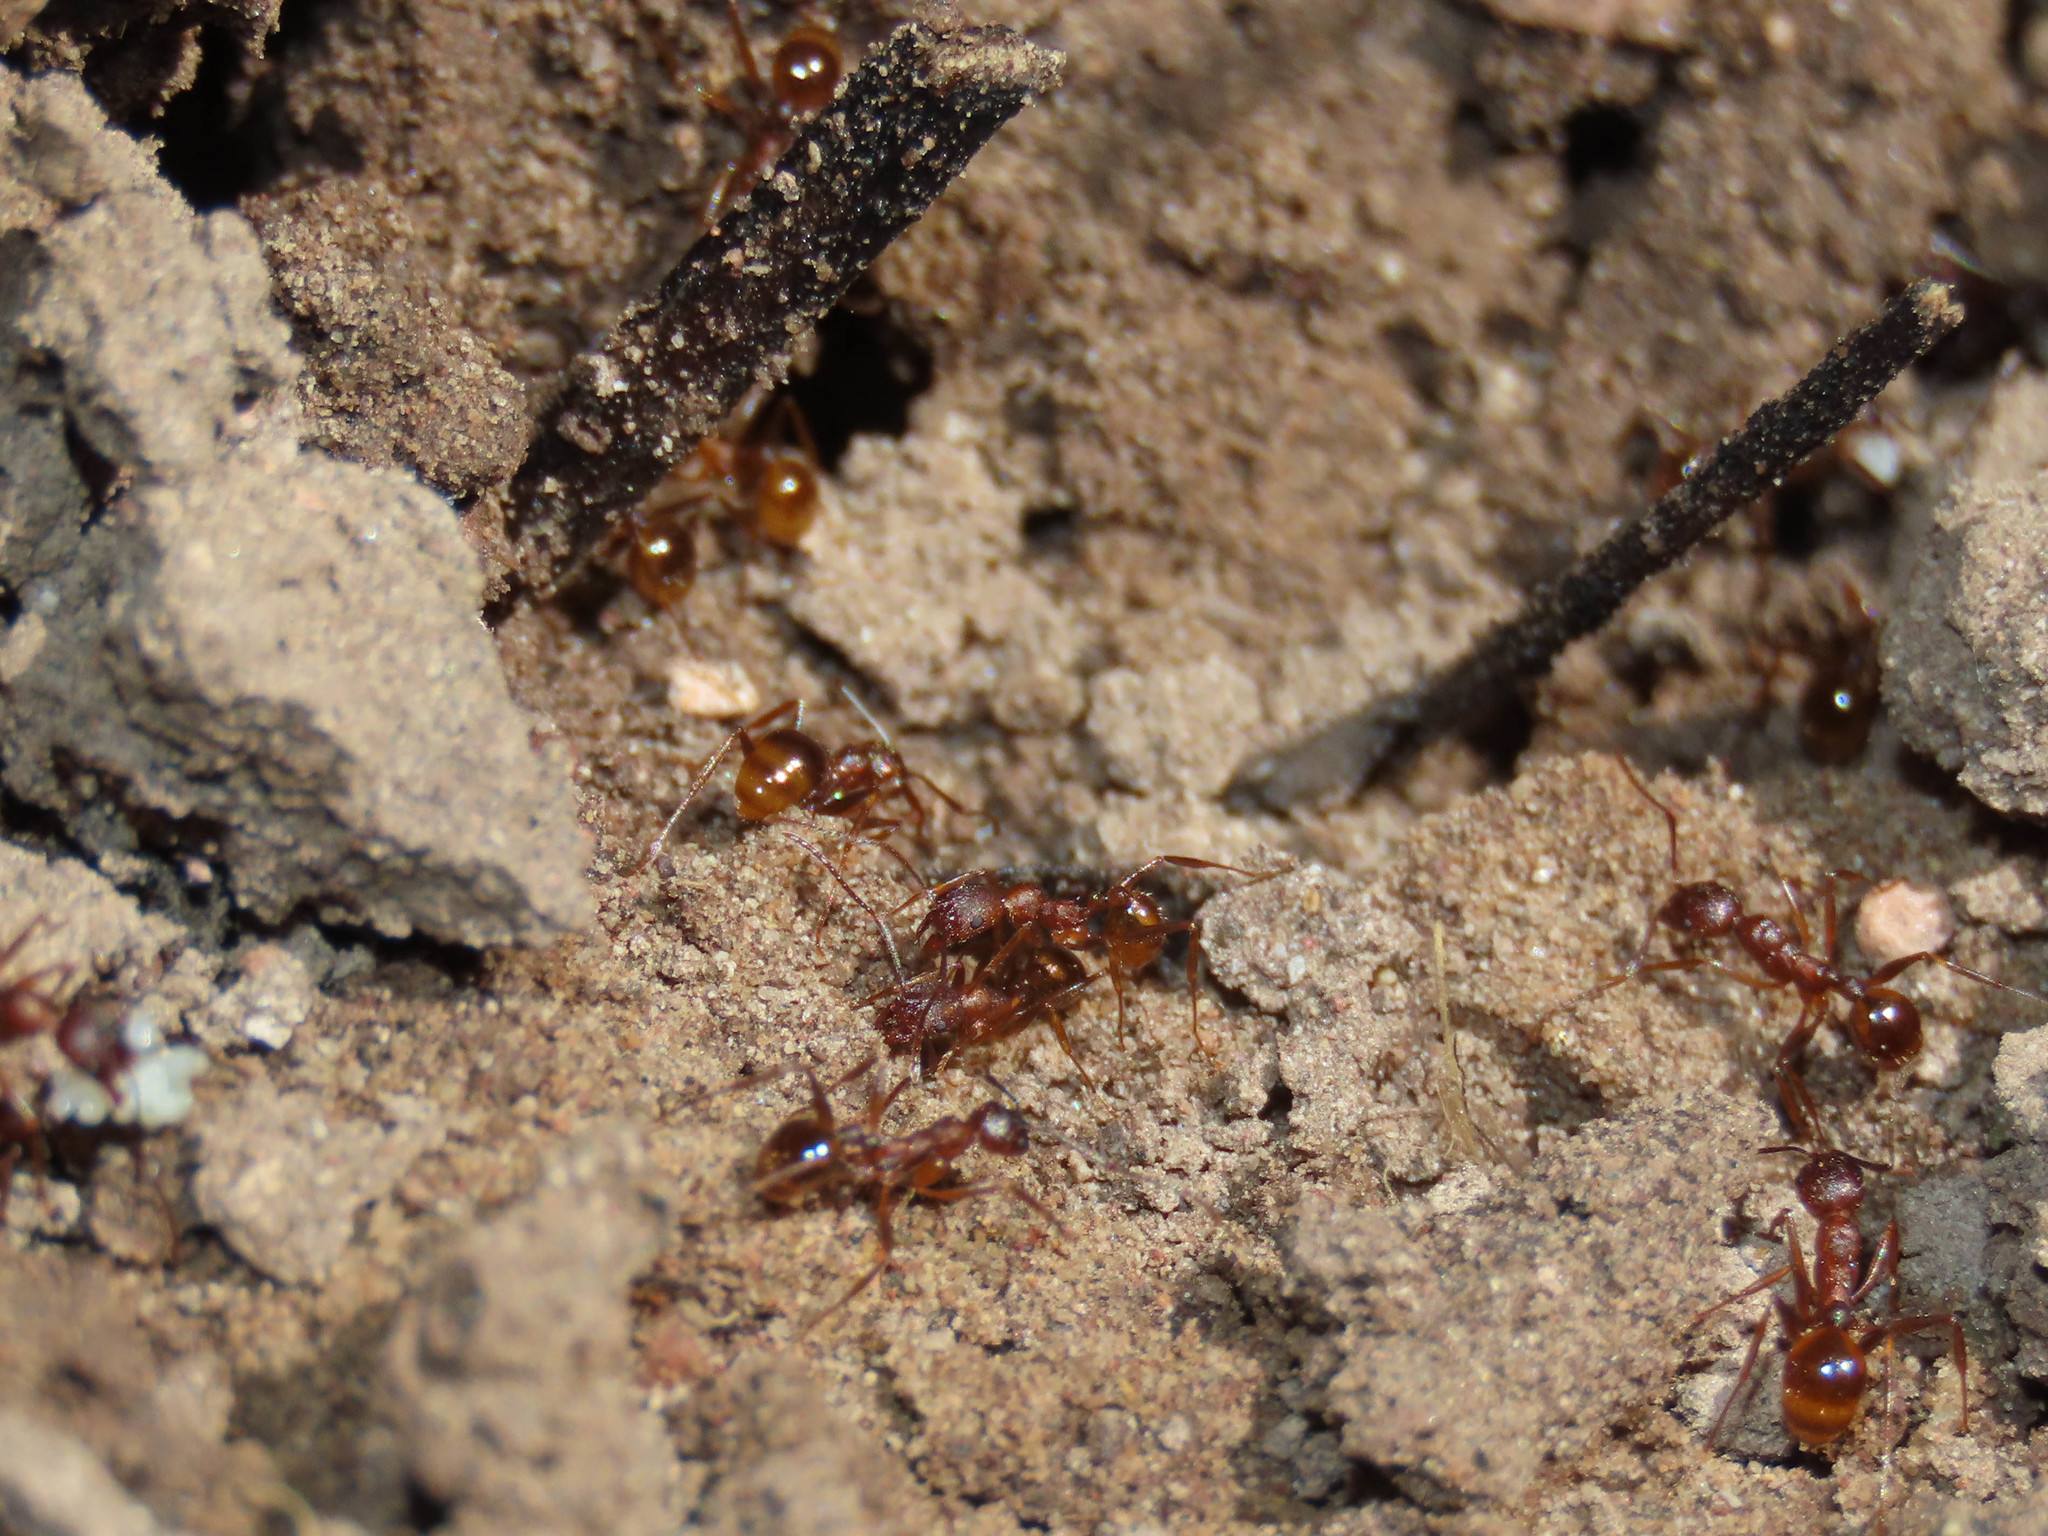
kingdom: Animalia
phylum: Arthropoda
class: Insecta
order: Hymenoptera
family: Formicidae
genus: Aphaenogaster
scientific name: Aphaenogaster texana
